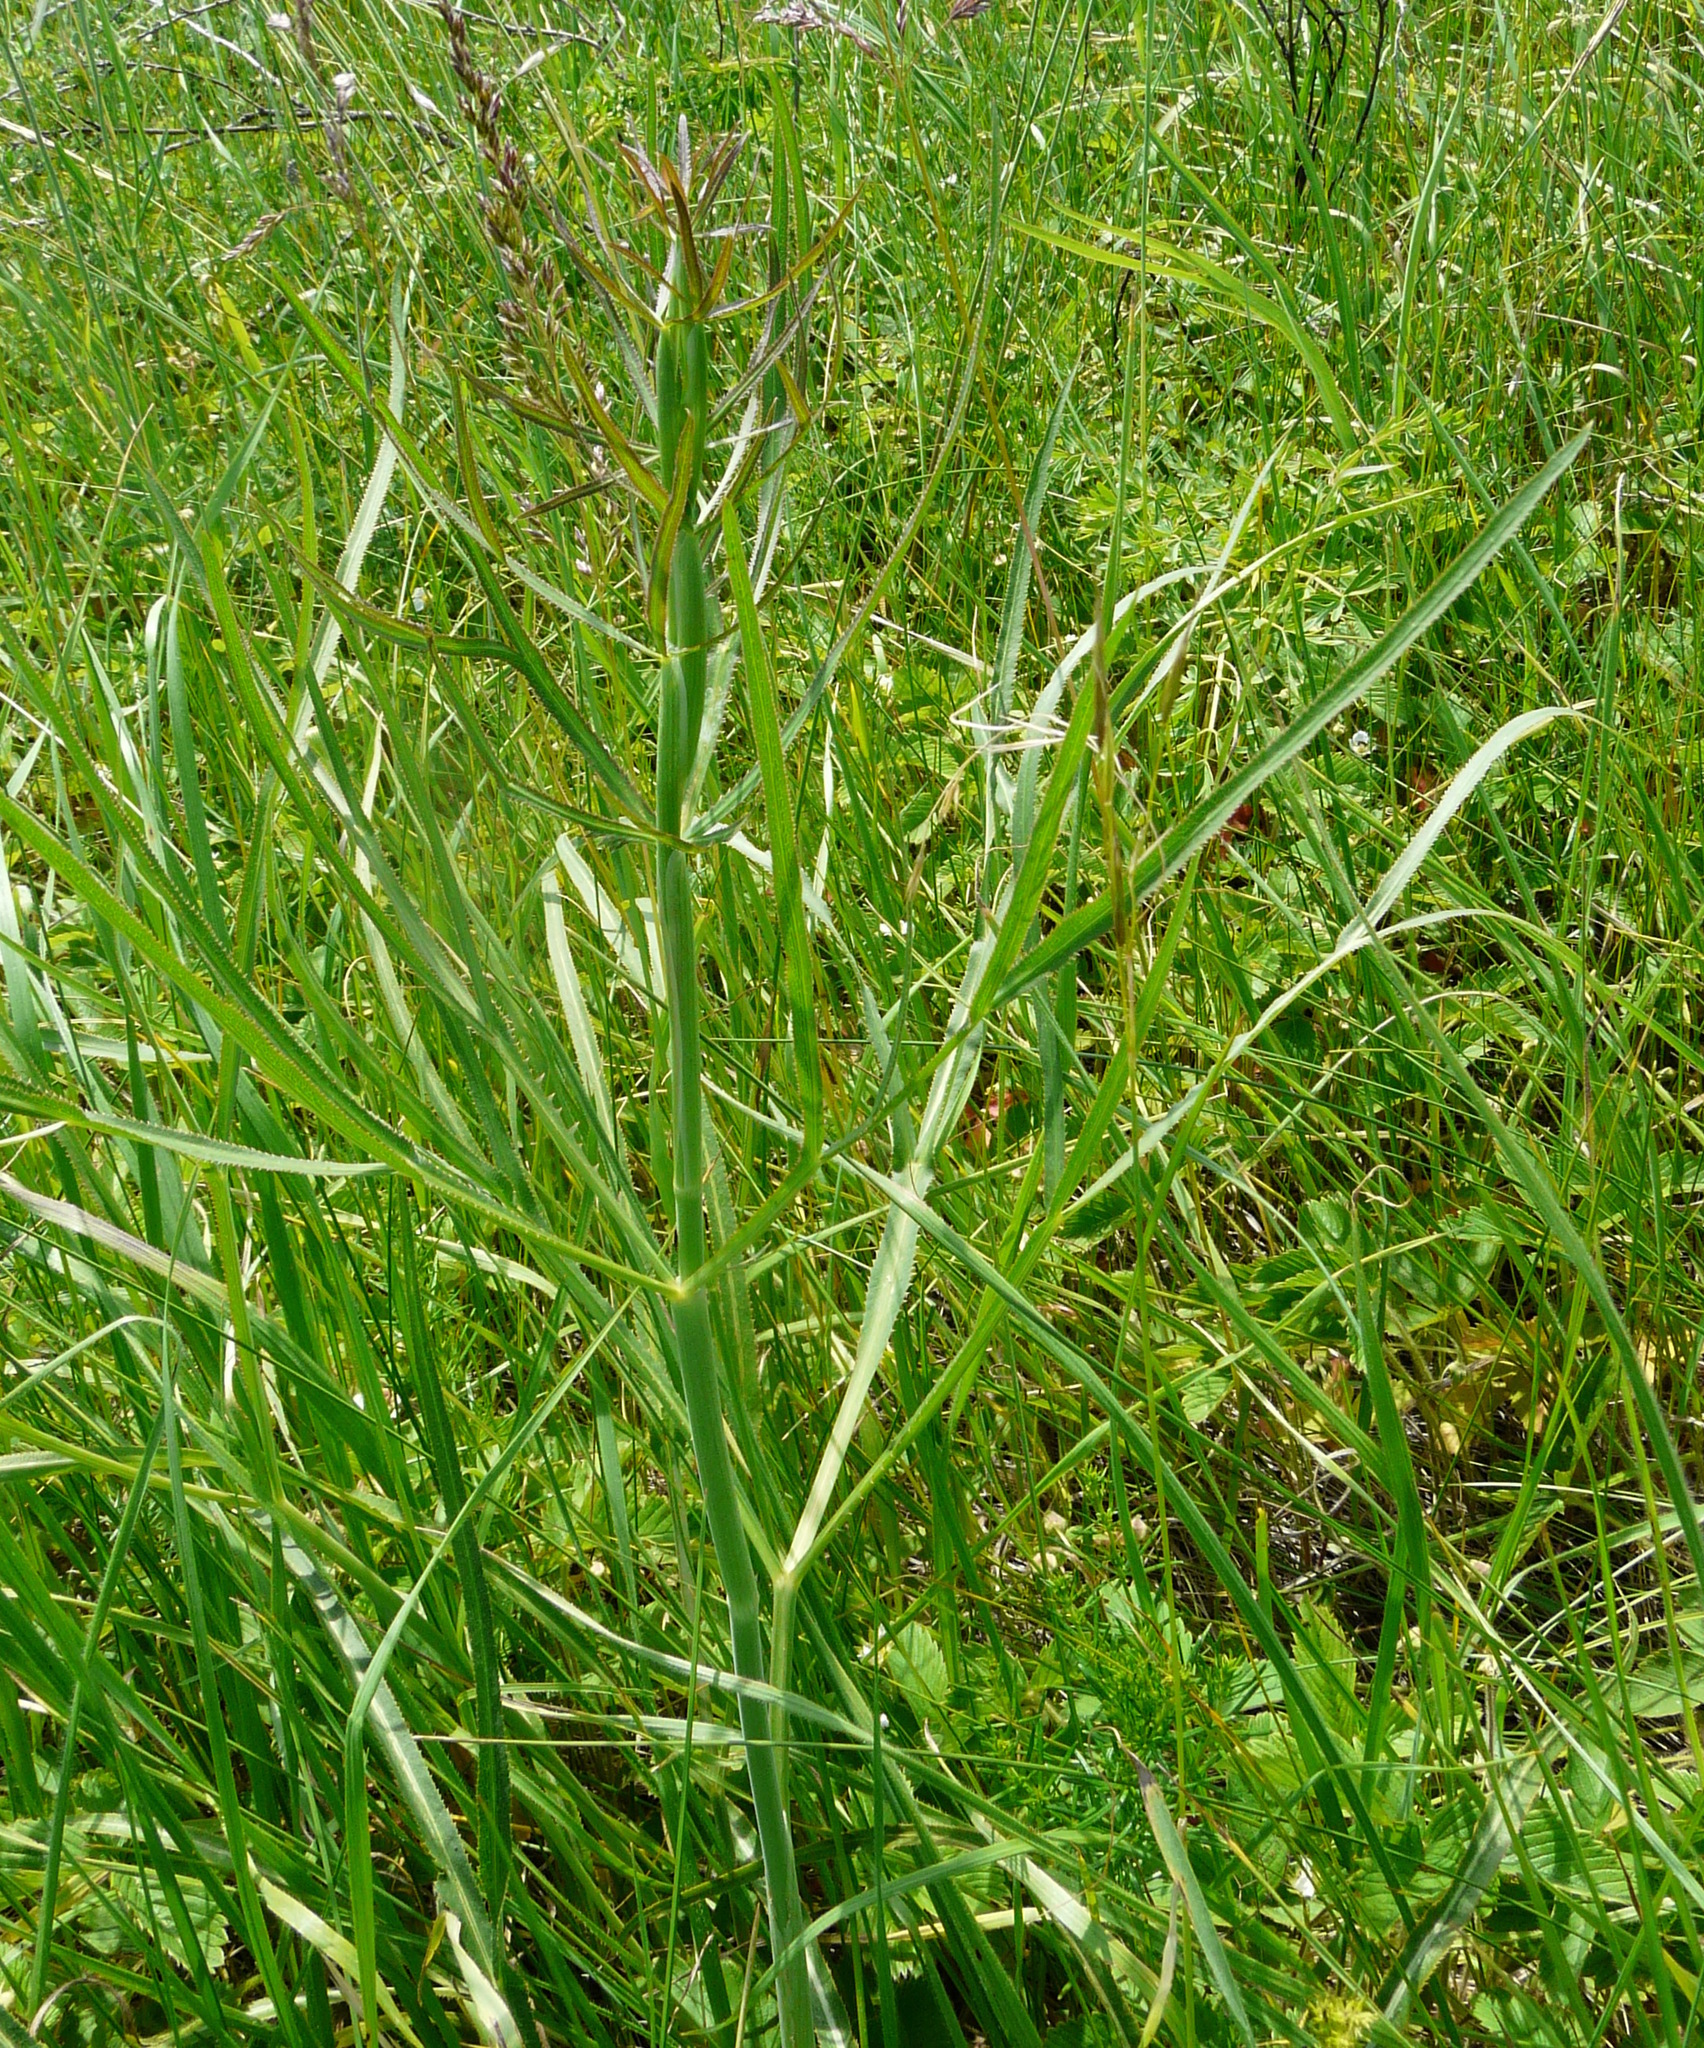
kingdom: Plantae
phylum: Tracheophyta
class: Magnoliopsida
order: Apiales
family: Apiaceae
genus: Falcaria
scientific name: Falcaria vulgaris
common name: Longleaf
